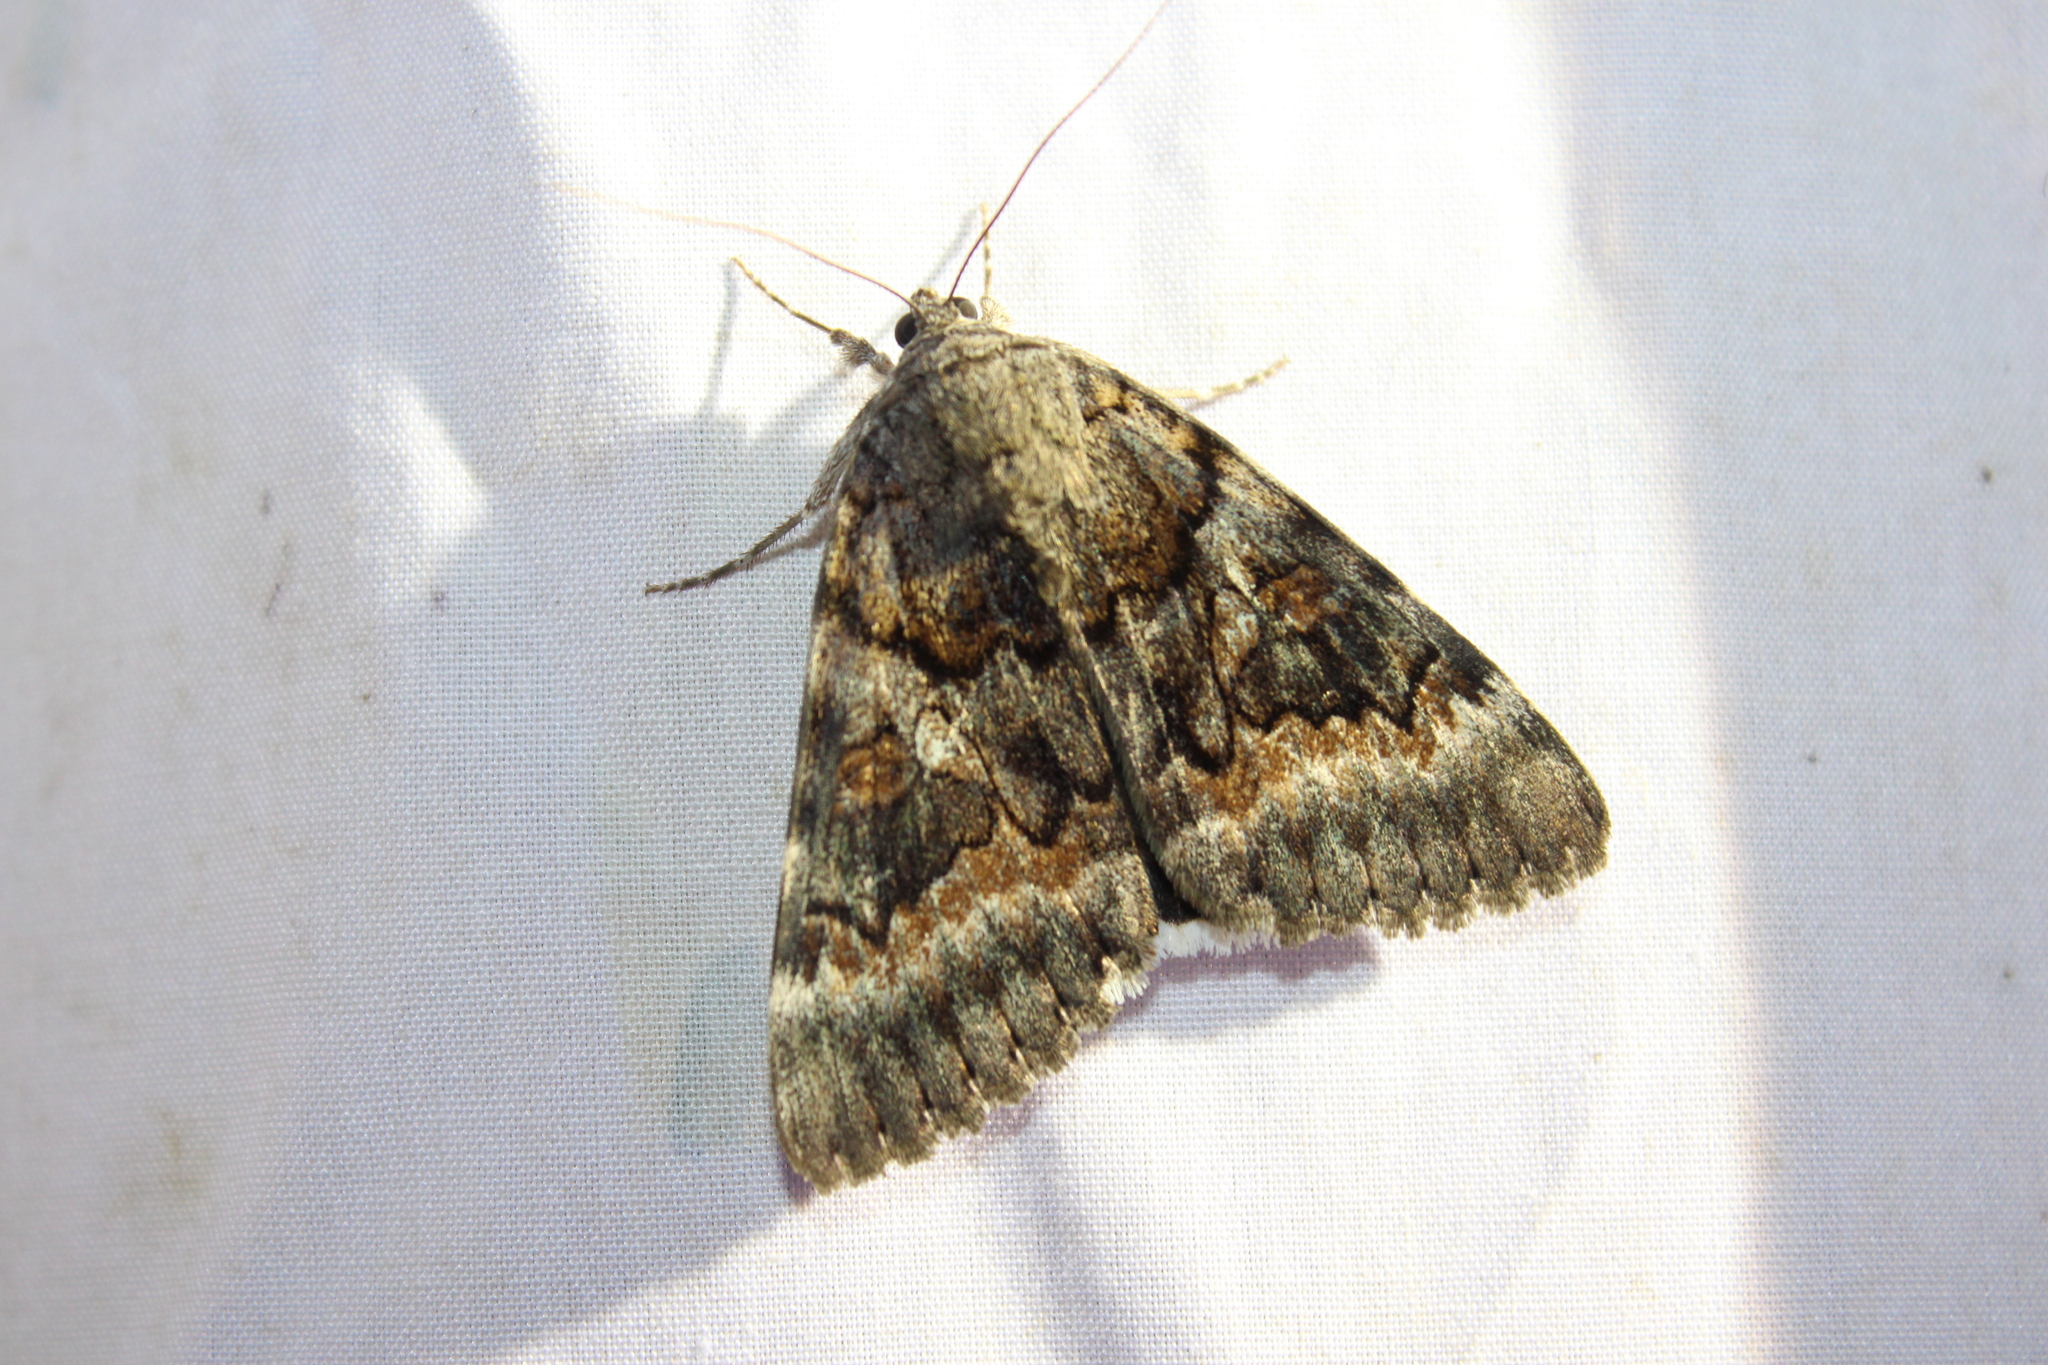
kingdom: Animalia
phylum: Arthropoda
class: Insecta
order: Lepidoptera
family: Erebidae
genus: Catocala
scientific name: Catocala epione
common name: Epione underwing
